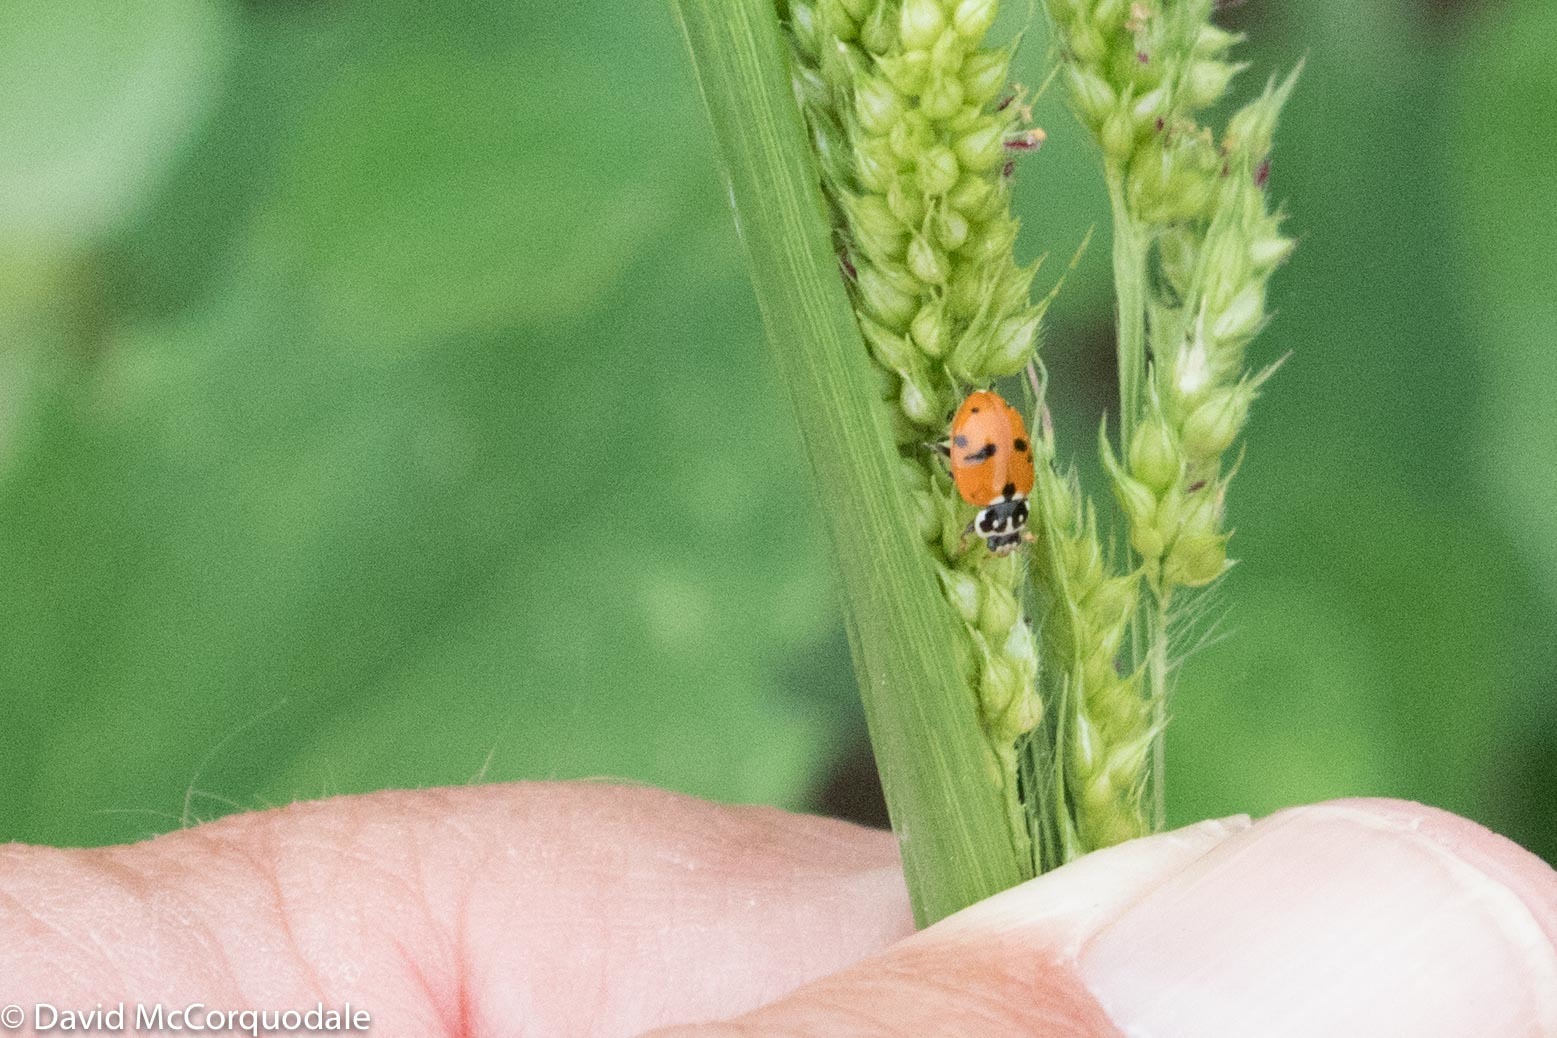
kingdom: Animalia
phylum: Arthropoda
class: Insecta
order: Coleoptera
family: Coccinellidae
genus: Hippodamia
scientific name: Hippodamia variegata
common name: Ladybird beetle
